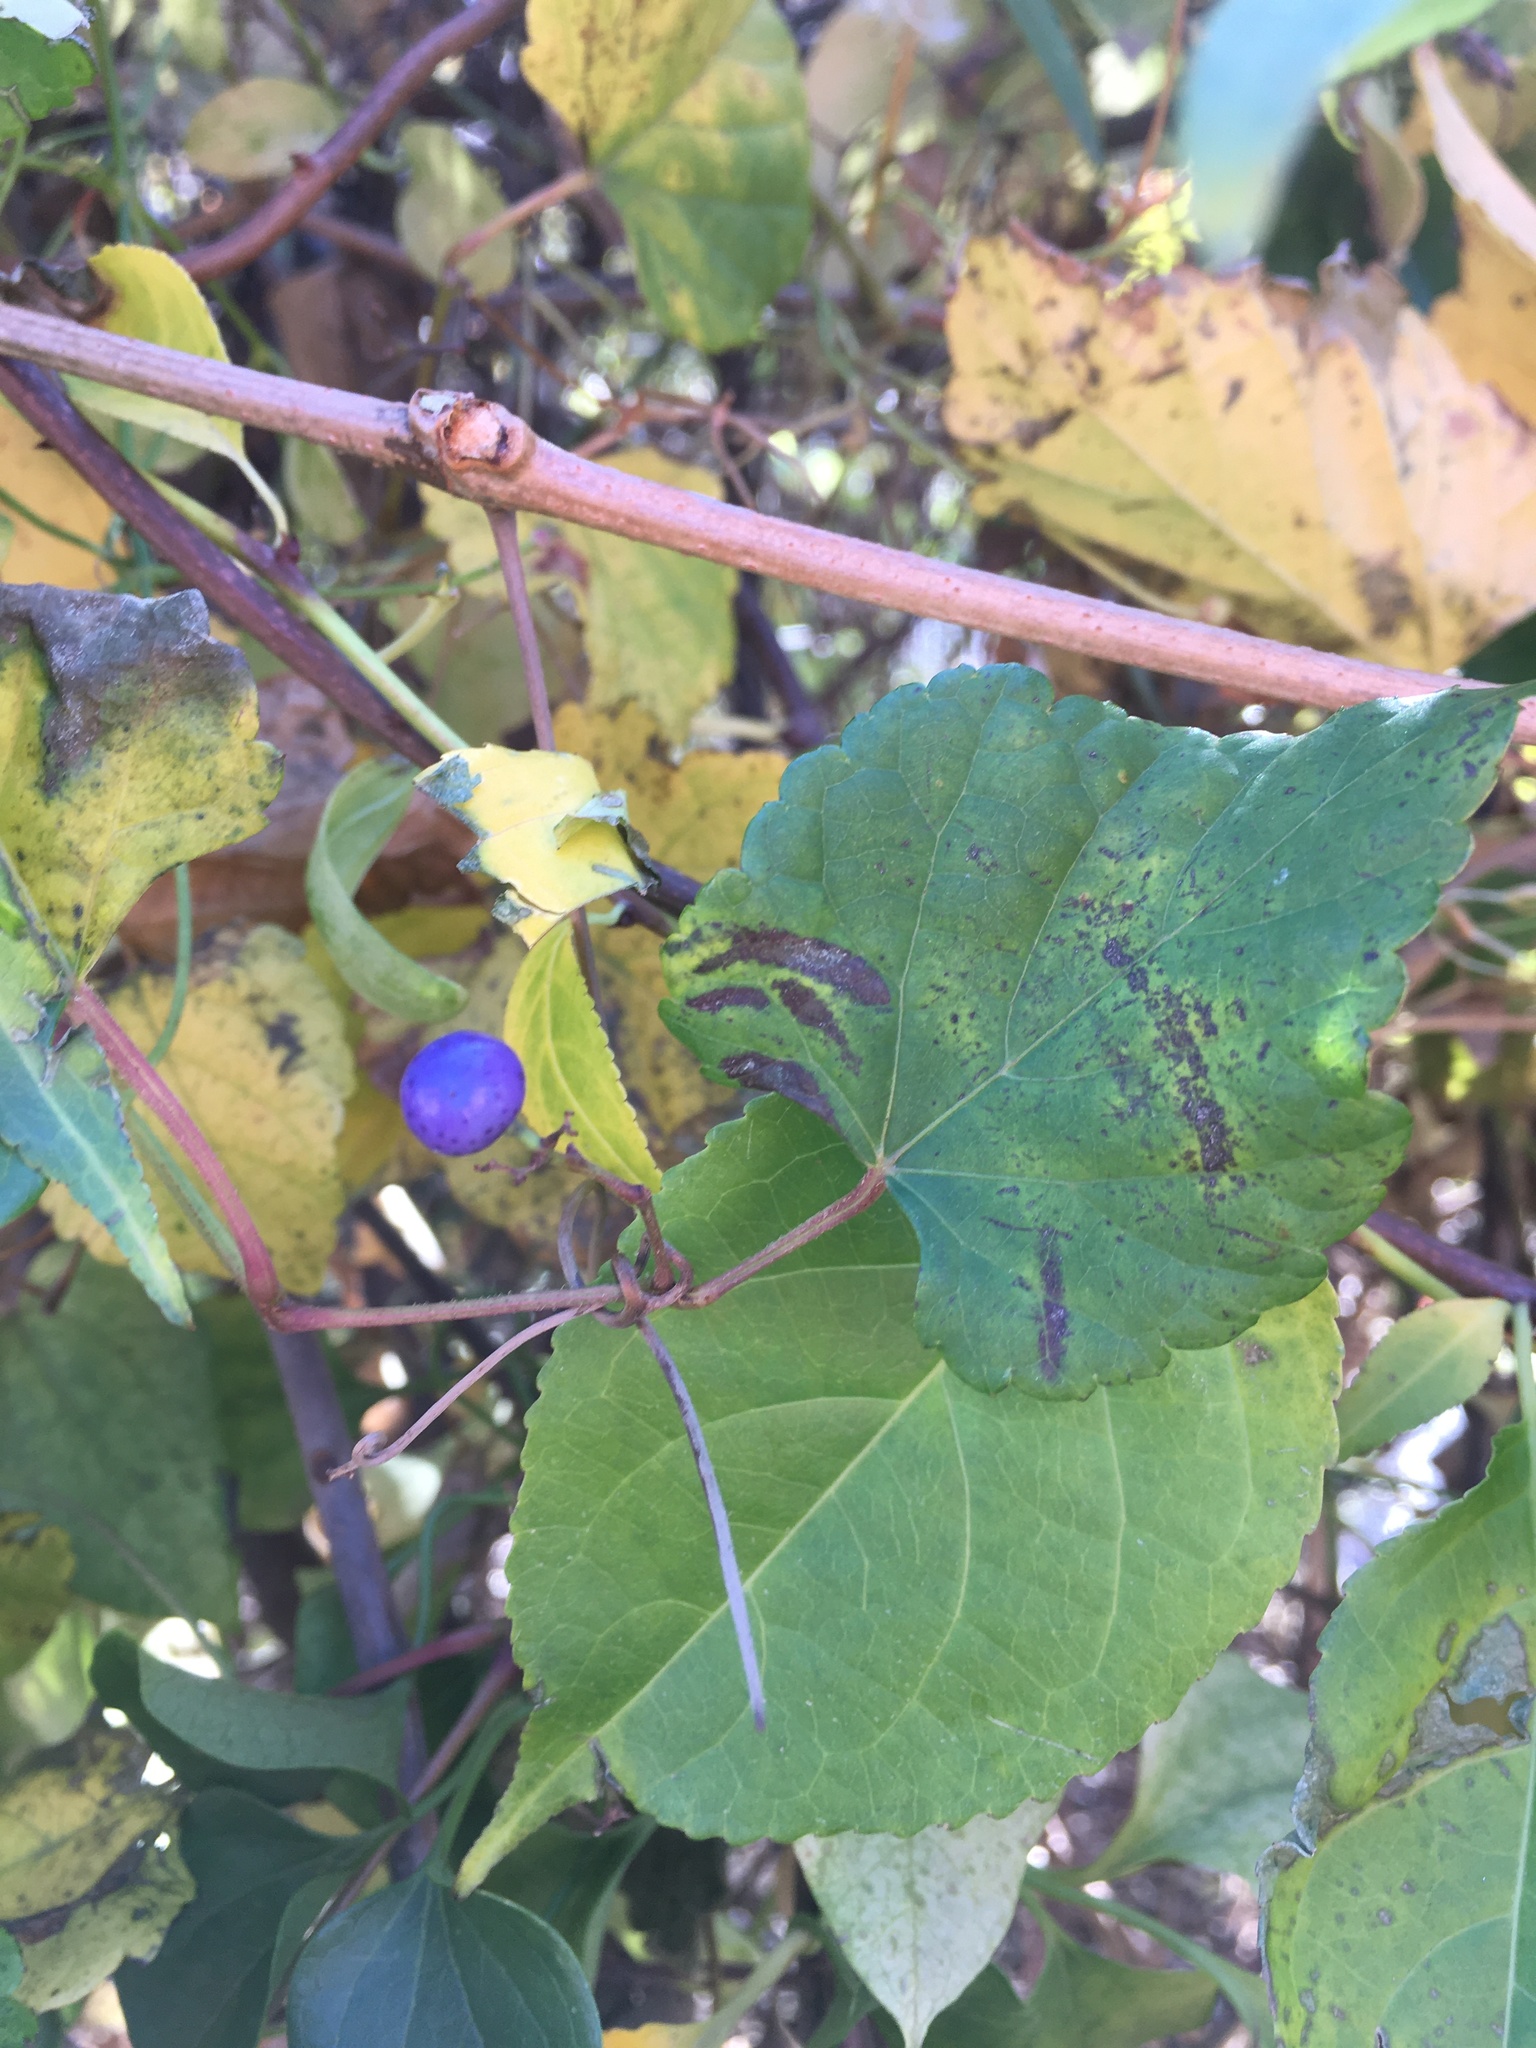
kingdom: Plantae
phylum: Tracheophyta
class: Magnoliopsida
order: Vitales
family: Vitaceae
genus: Ampelopsis
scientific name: Ampelopsis glandulosa
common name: Amur peppervine
